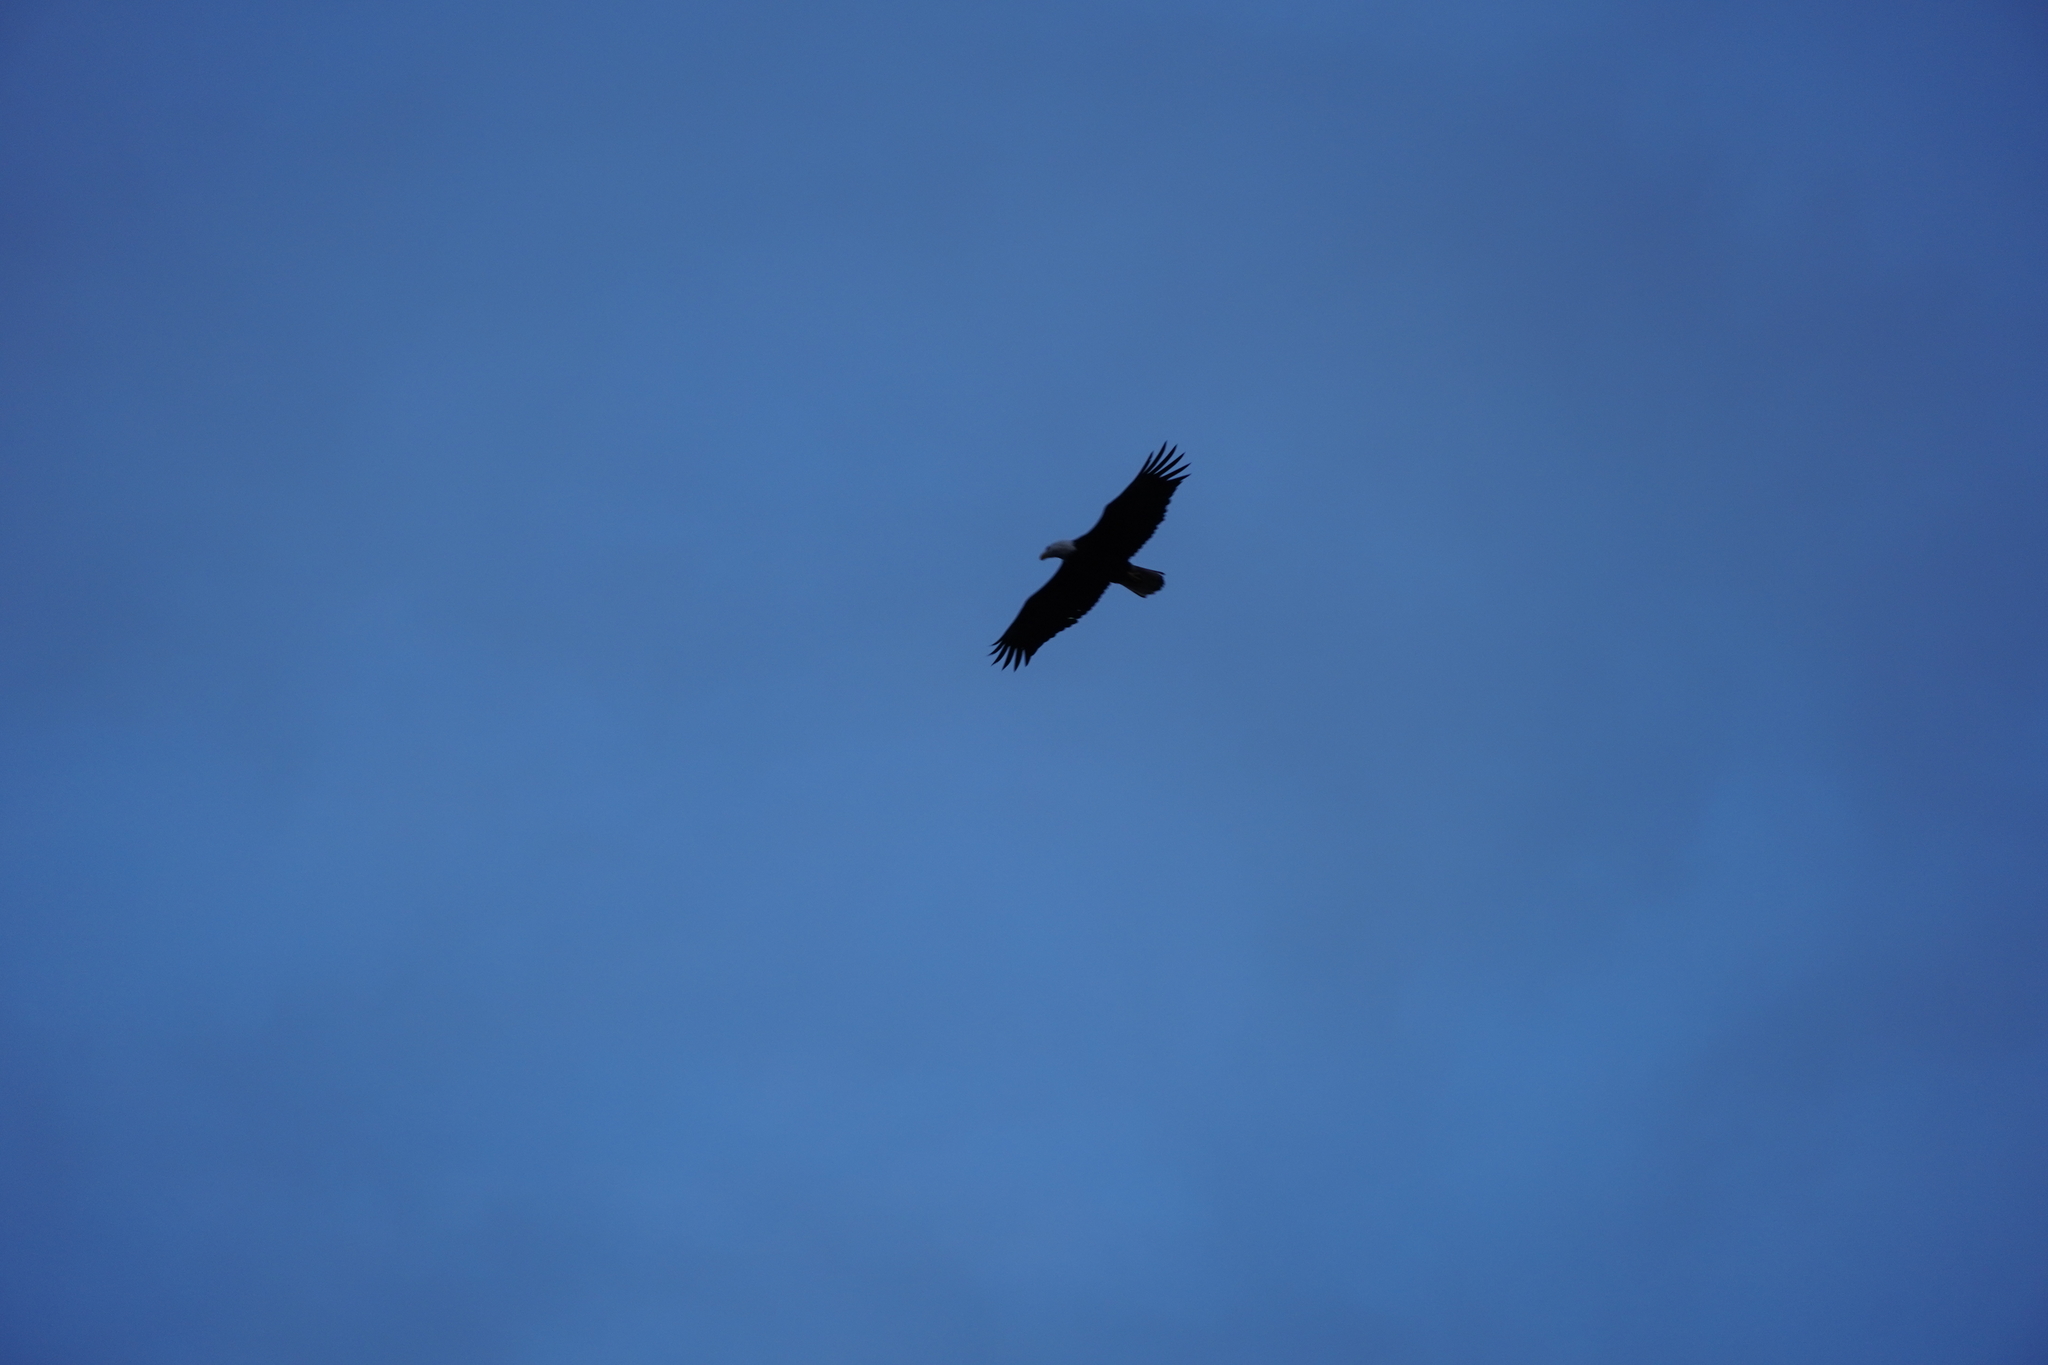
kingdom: Animalia
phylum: Chordata
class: Aves
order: Accipitriformes
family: Accipitridae
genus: Haliaeetus
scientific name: Haliaeetus leucocephalus
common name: Bald eagle
